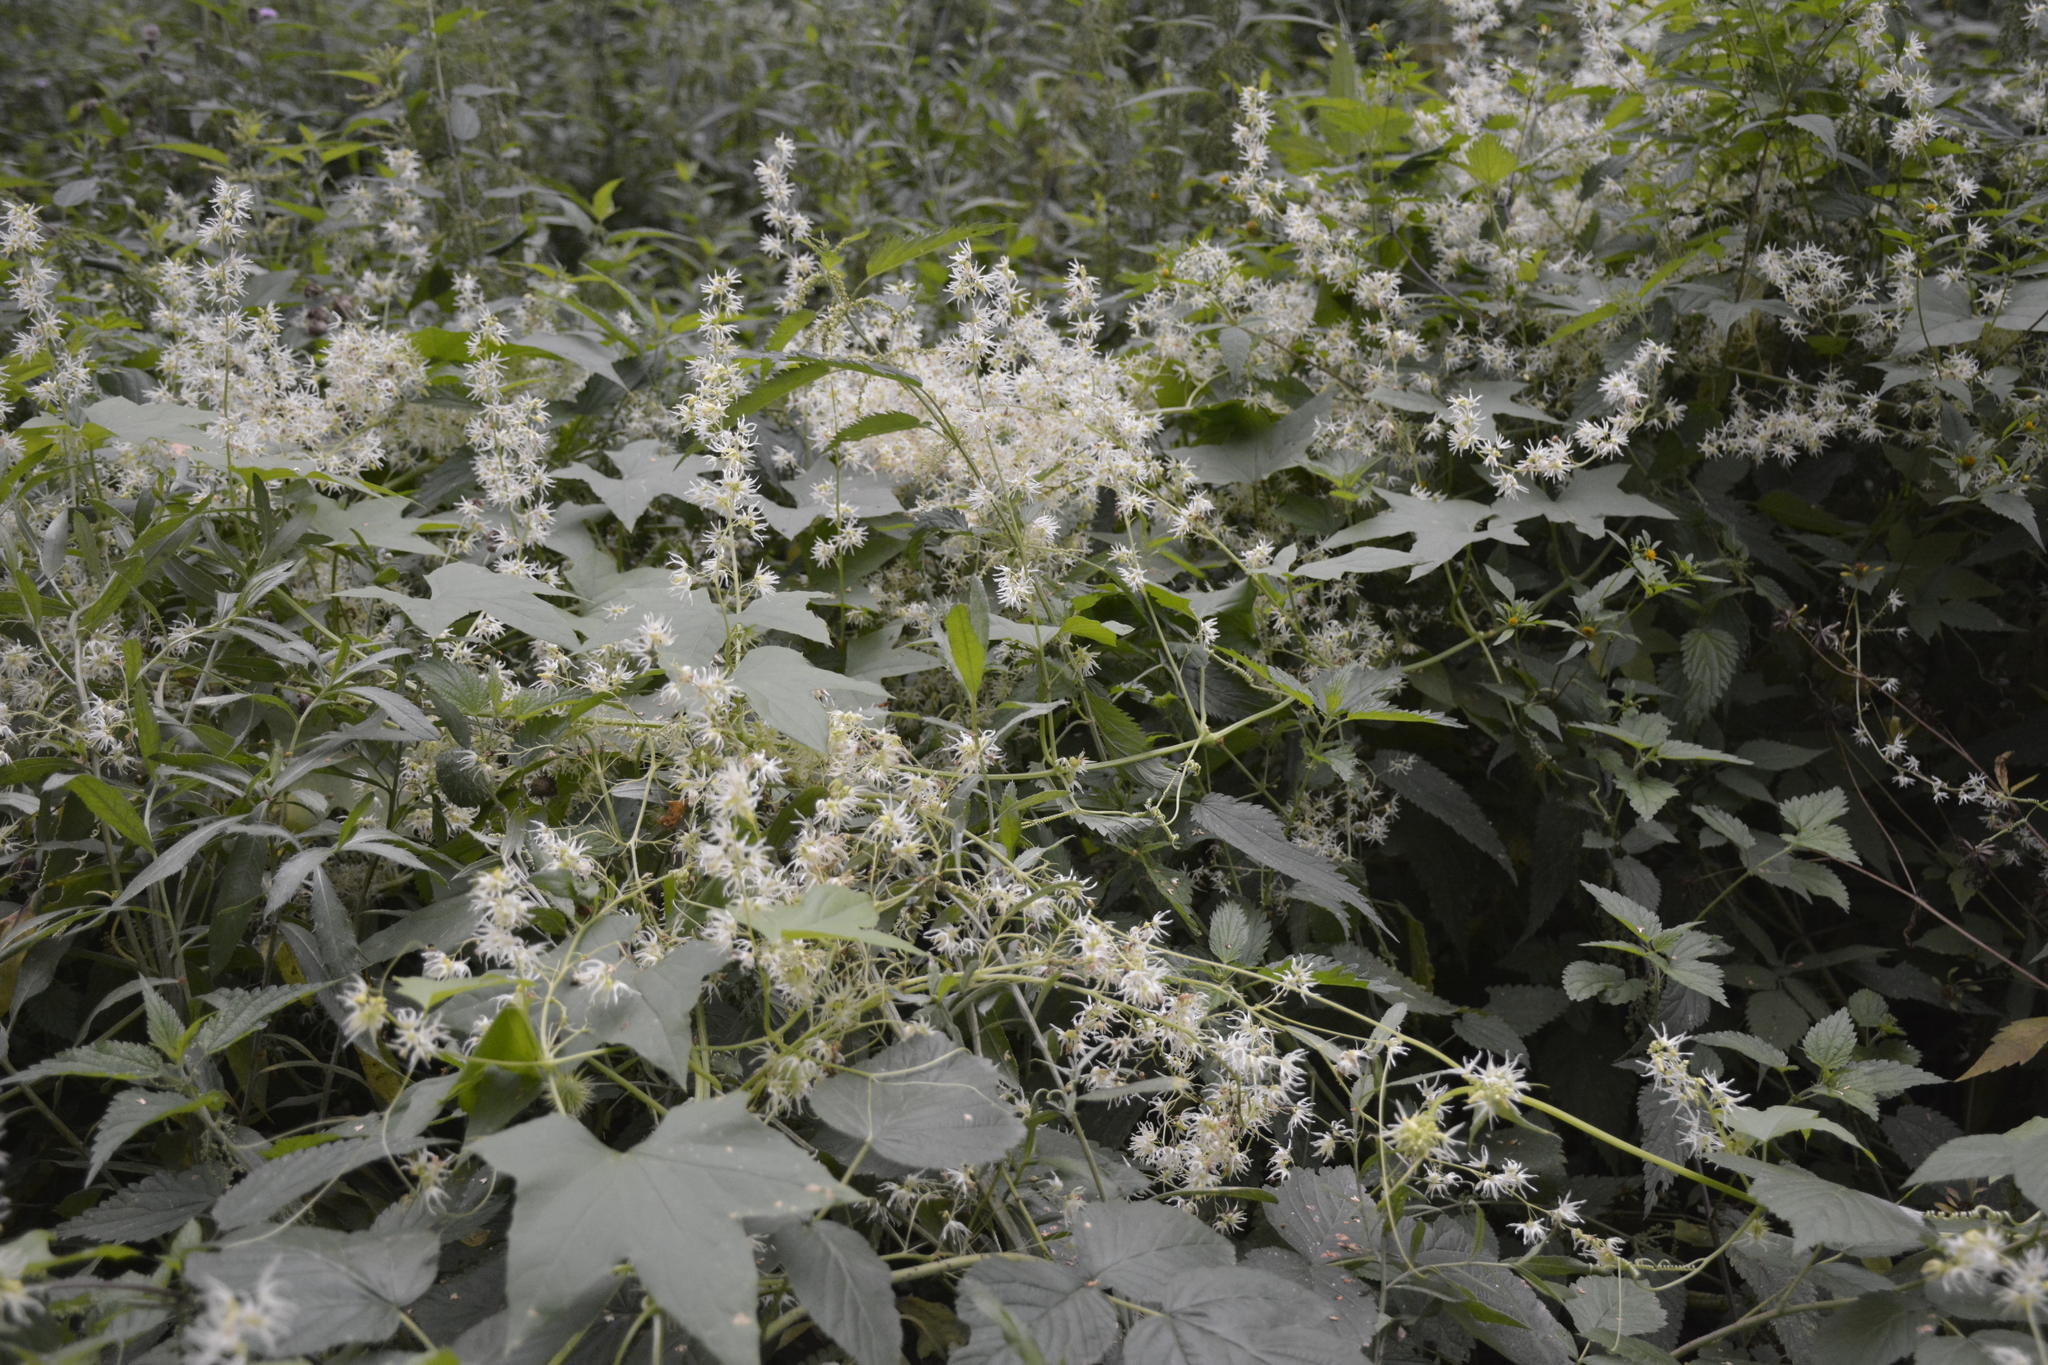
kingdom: Plantae
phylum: Tracheophyta
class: Magnoliopsida
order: Cucurbitales
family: Cucurbitaceae
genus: Echinocystis
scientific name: Echinocystis lobata
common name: Wild cucumber
